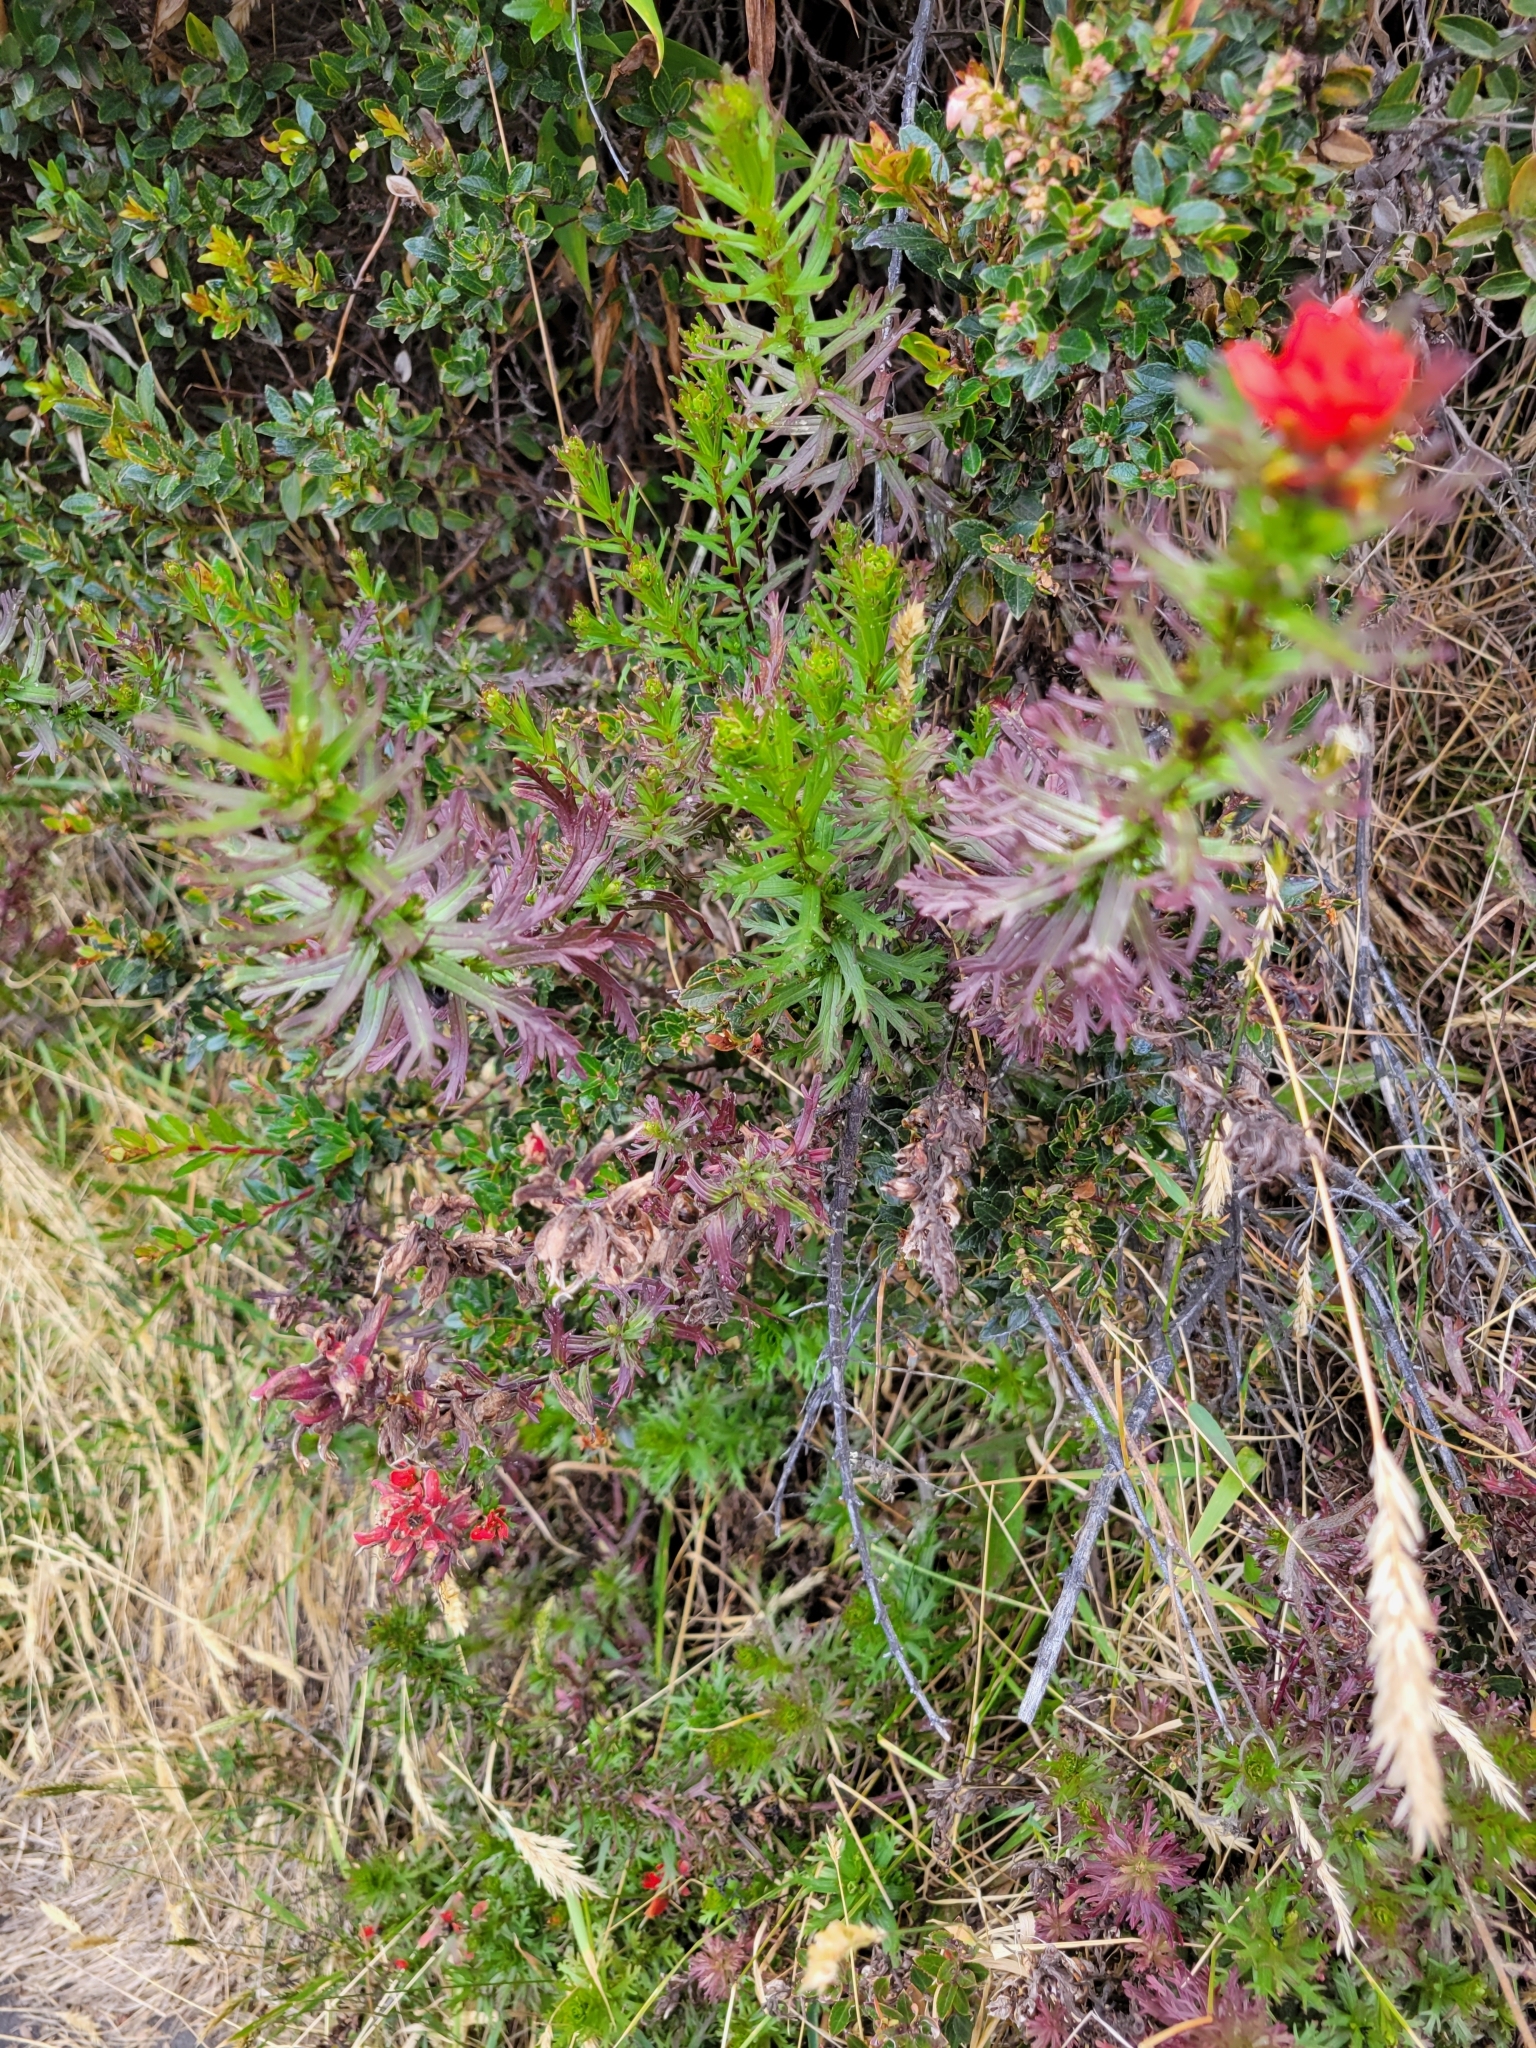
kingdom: Plantae
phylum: Tracheophyta
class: Magnoliopsida
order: Lamiales
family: Orobanchaceae
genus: Castilleja
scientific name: Castilleja irasuensis
